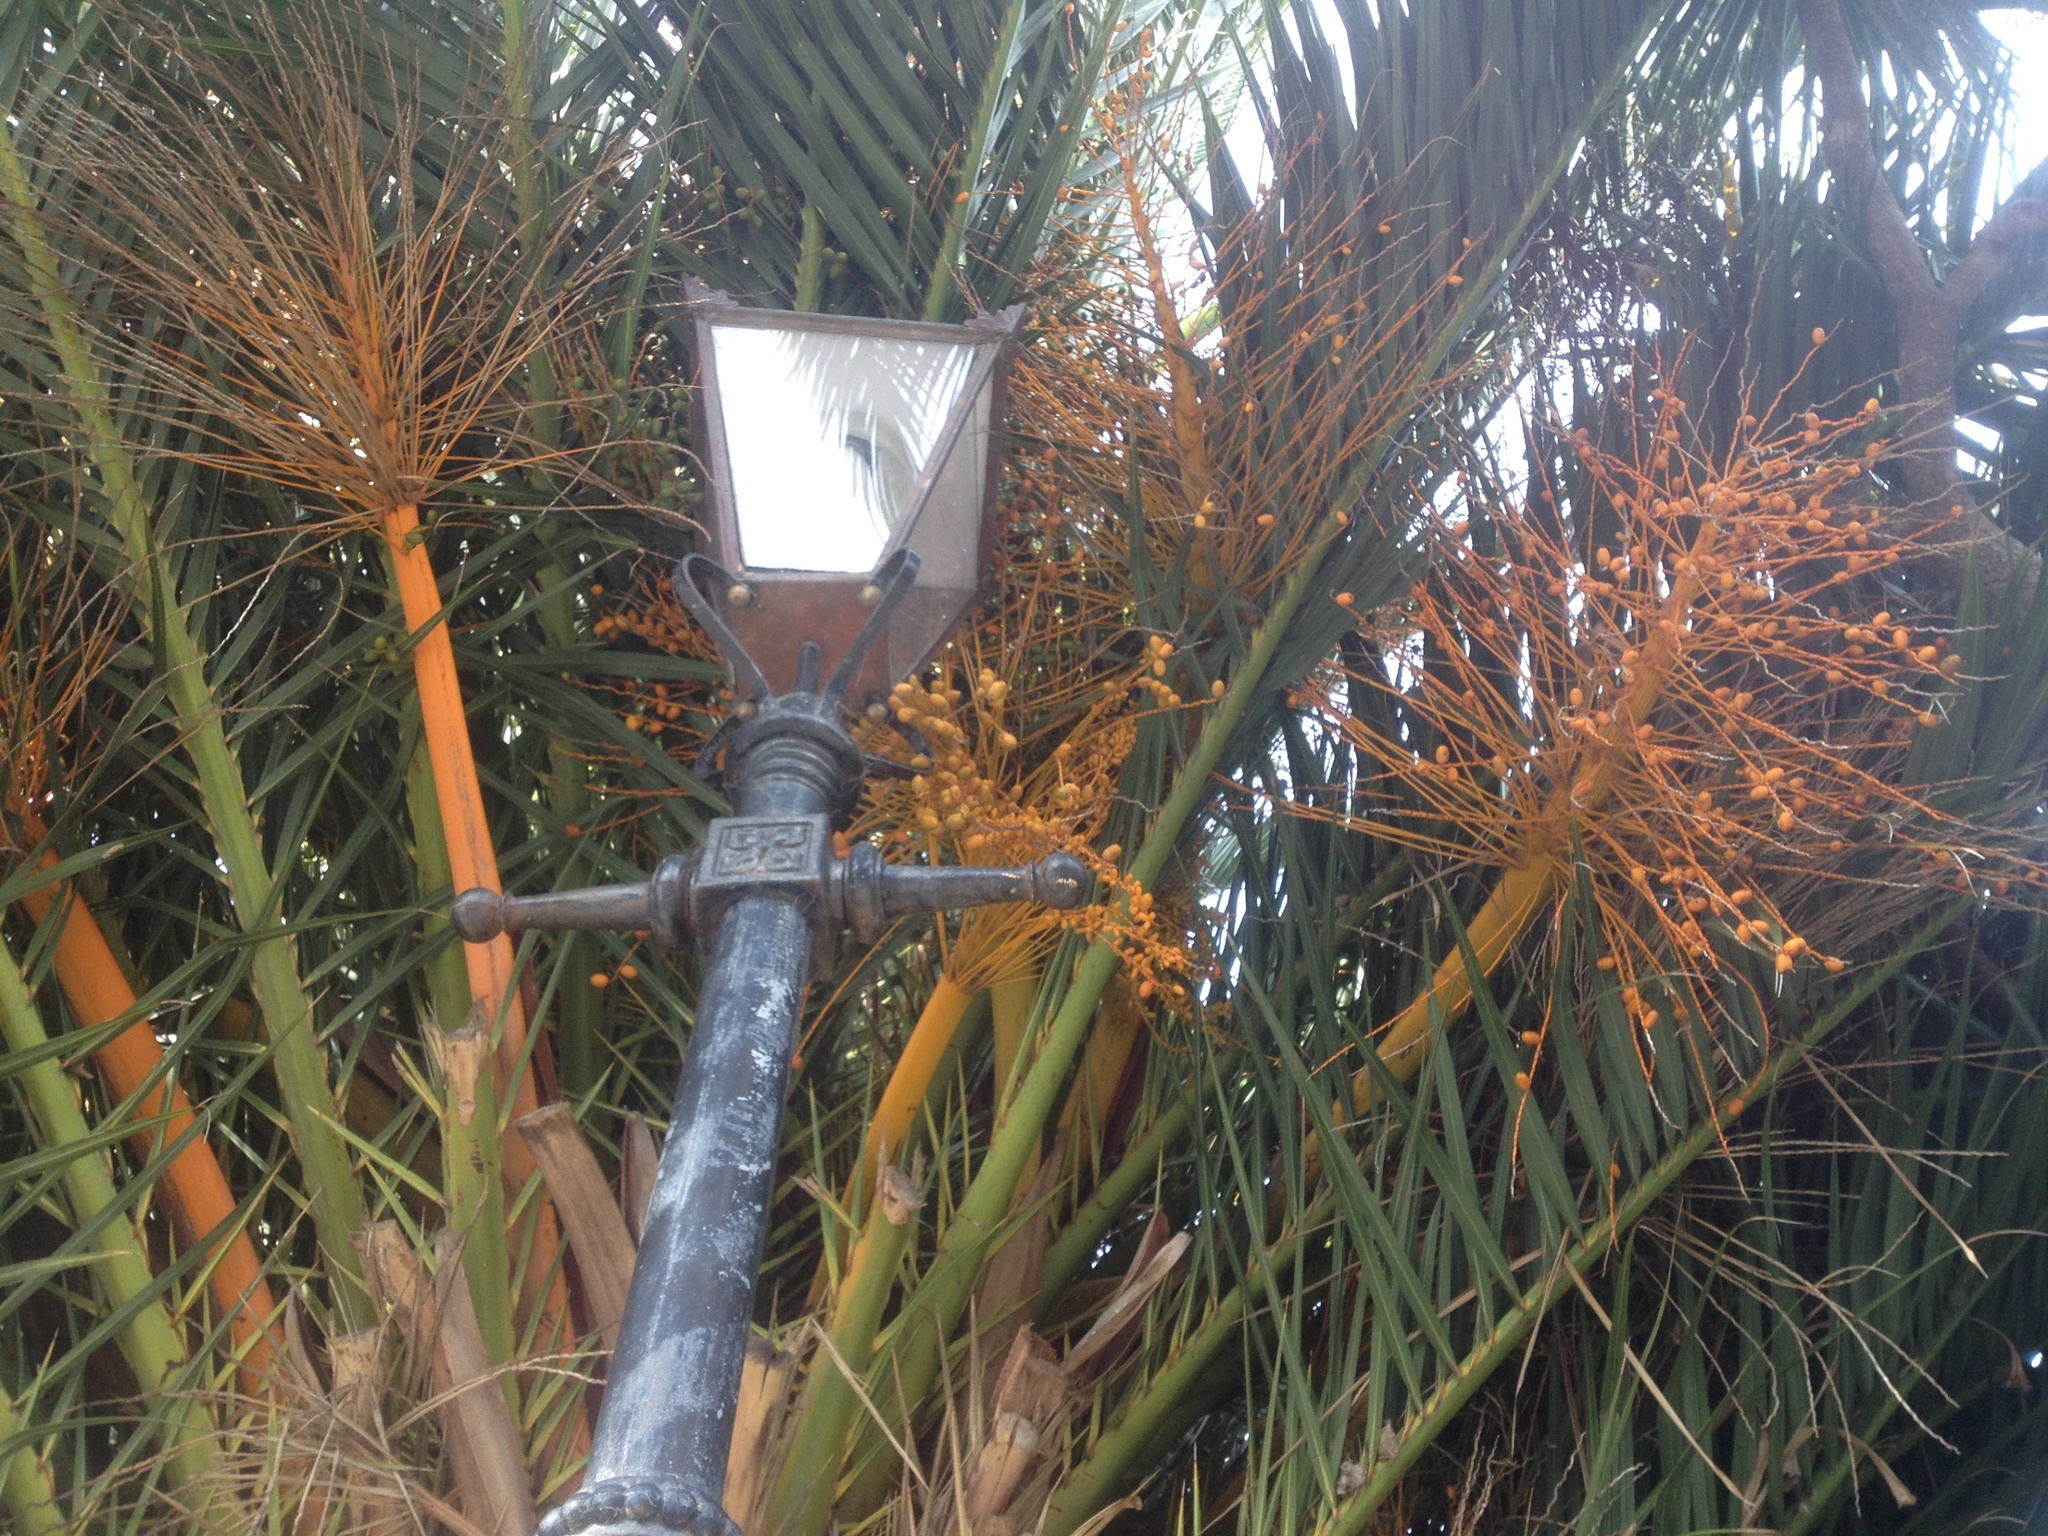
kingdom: Plantae
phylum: Tracheophyta
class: Liliopsida
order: Arecales
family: Arecaceae
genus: Phoenix
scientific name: Phoenix canariensis
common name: Canary island date palm
